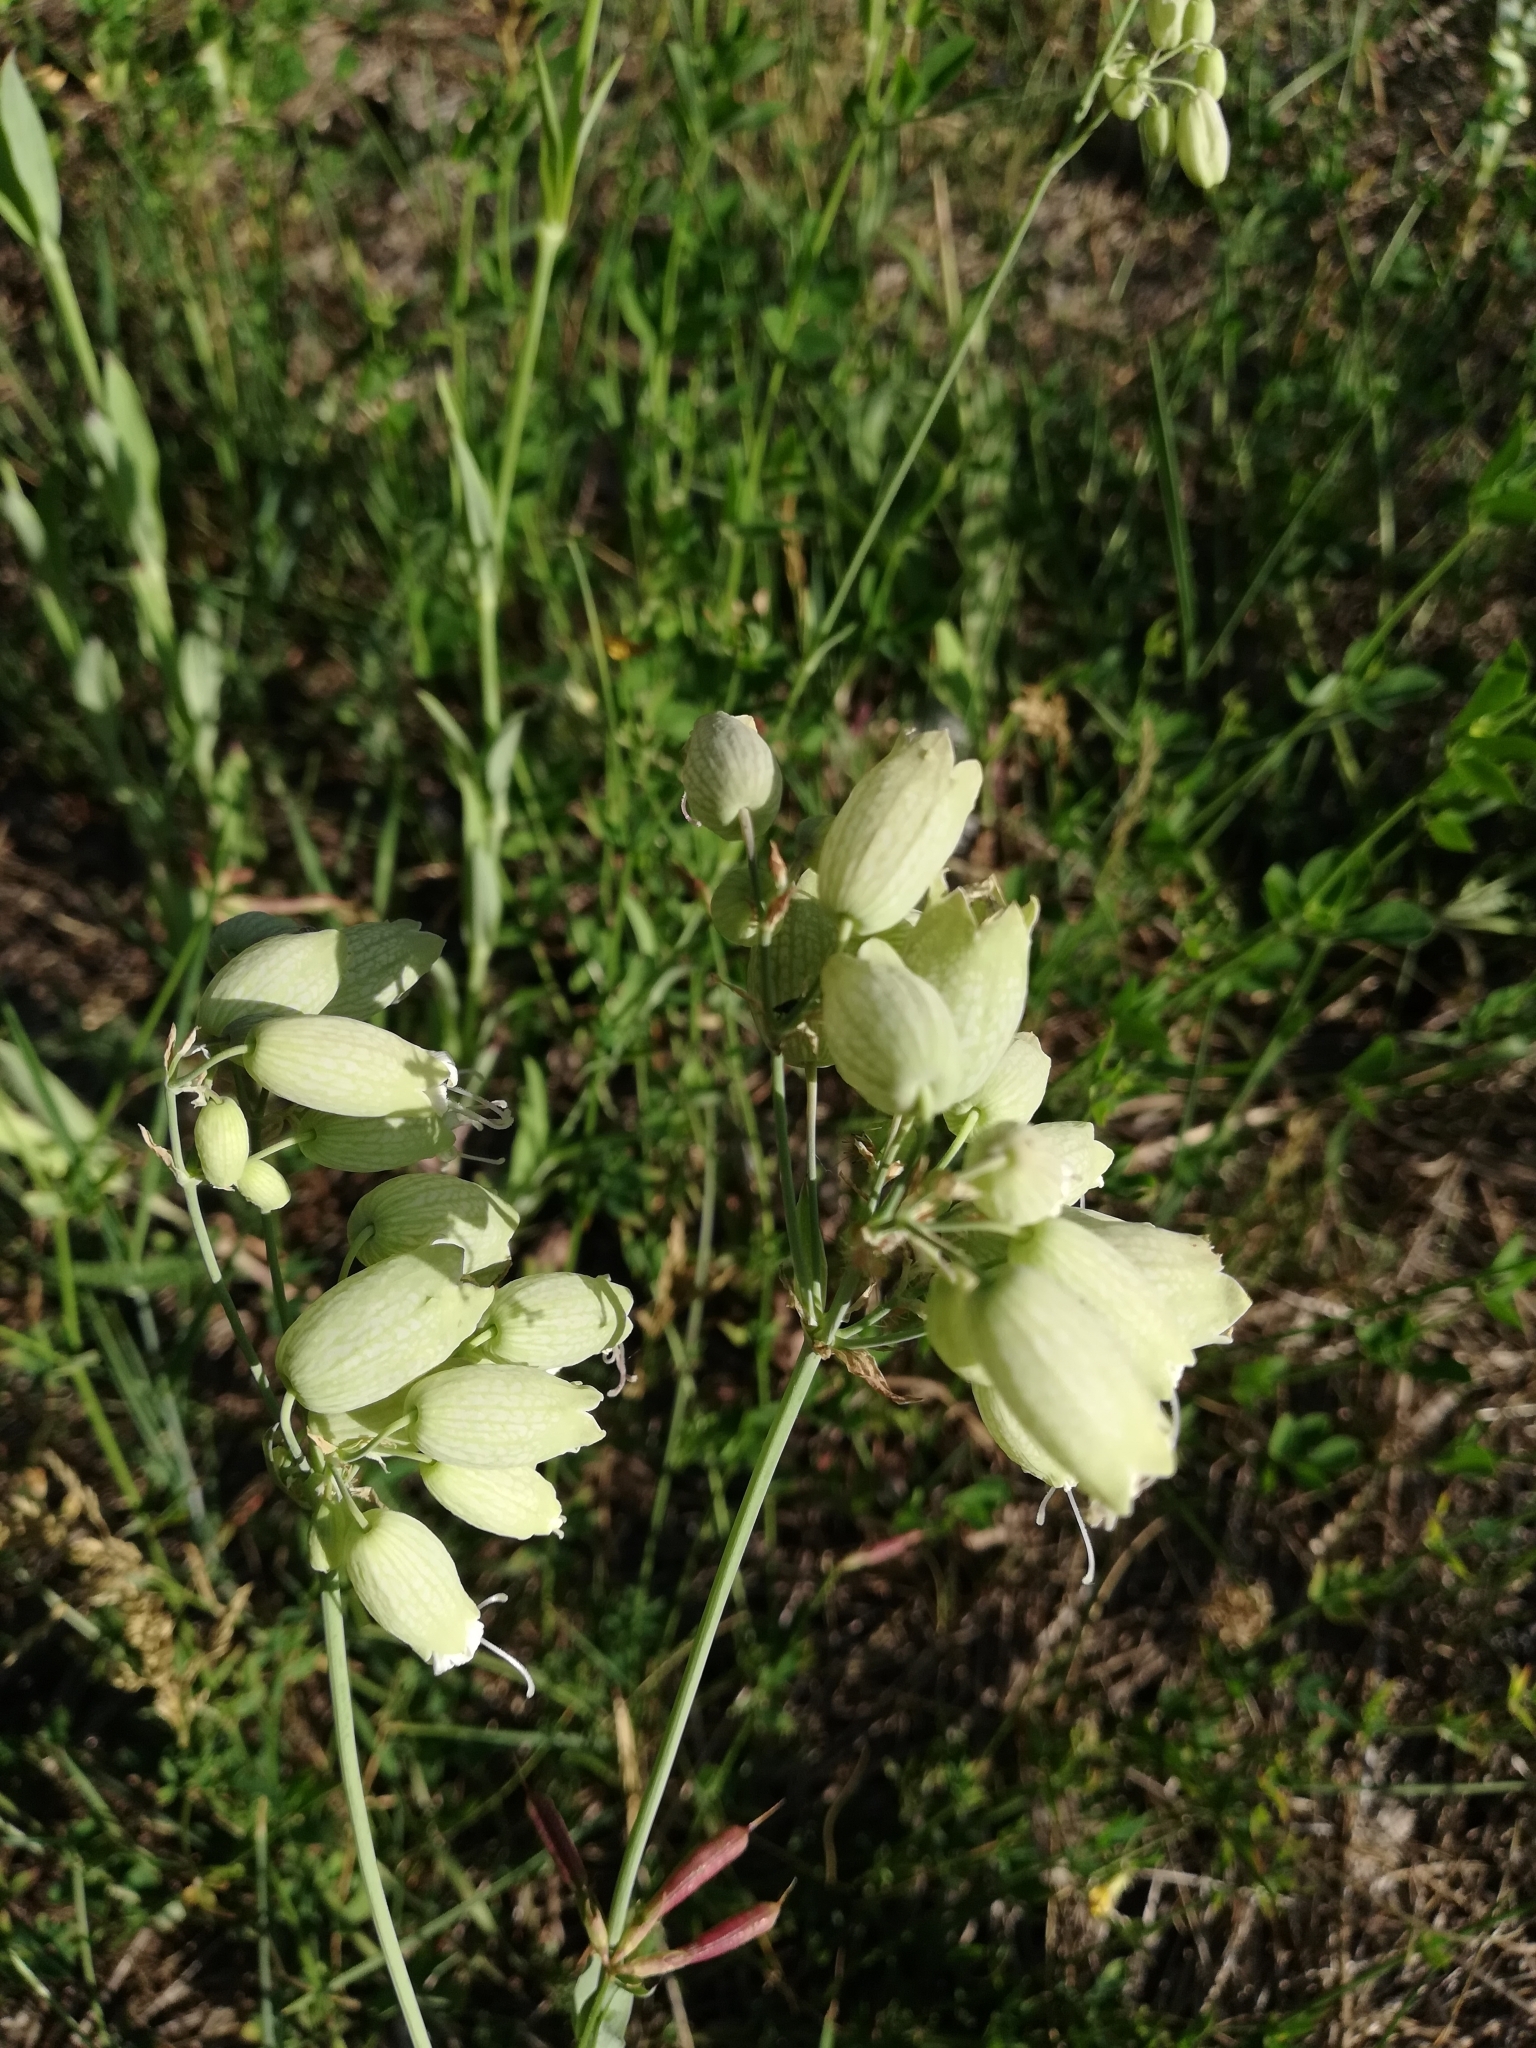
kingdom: Plantae
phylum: Tracheophyta
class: Magnoliopsida
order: Caryophyllales
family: Caryophyllaceae
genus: Silene
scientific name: Silene vulgaris
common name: Bladder campion
